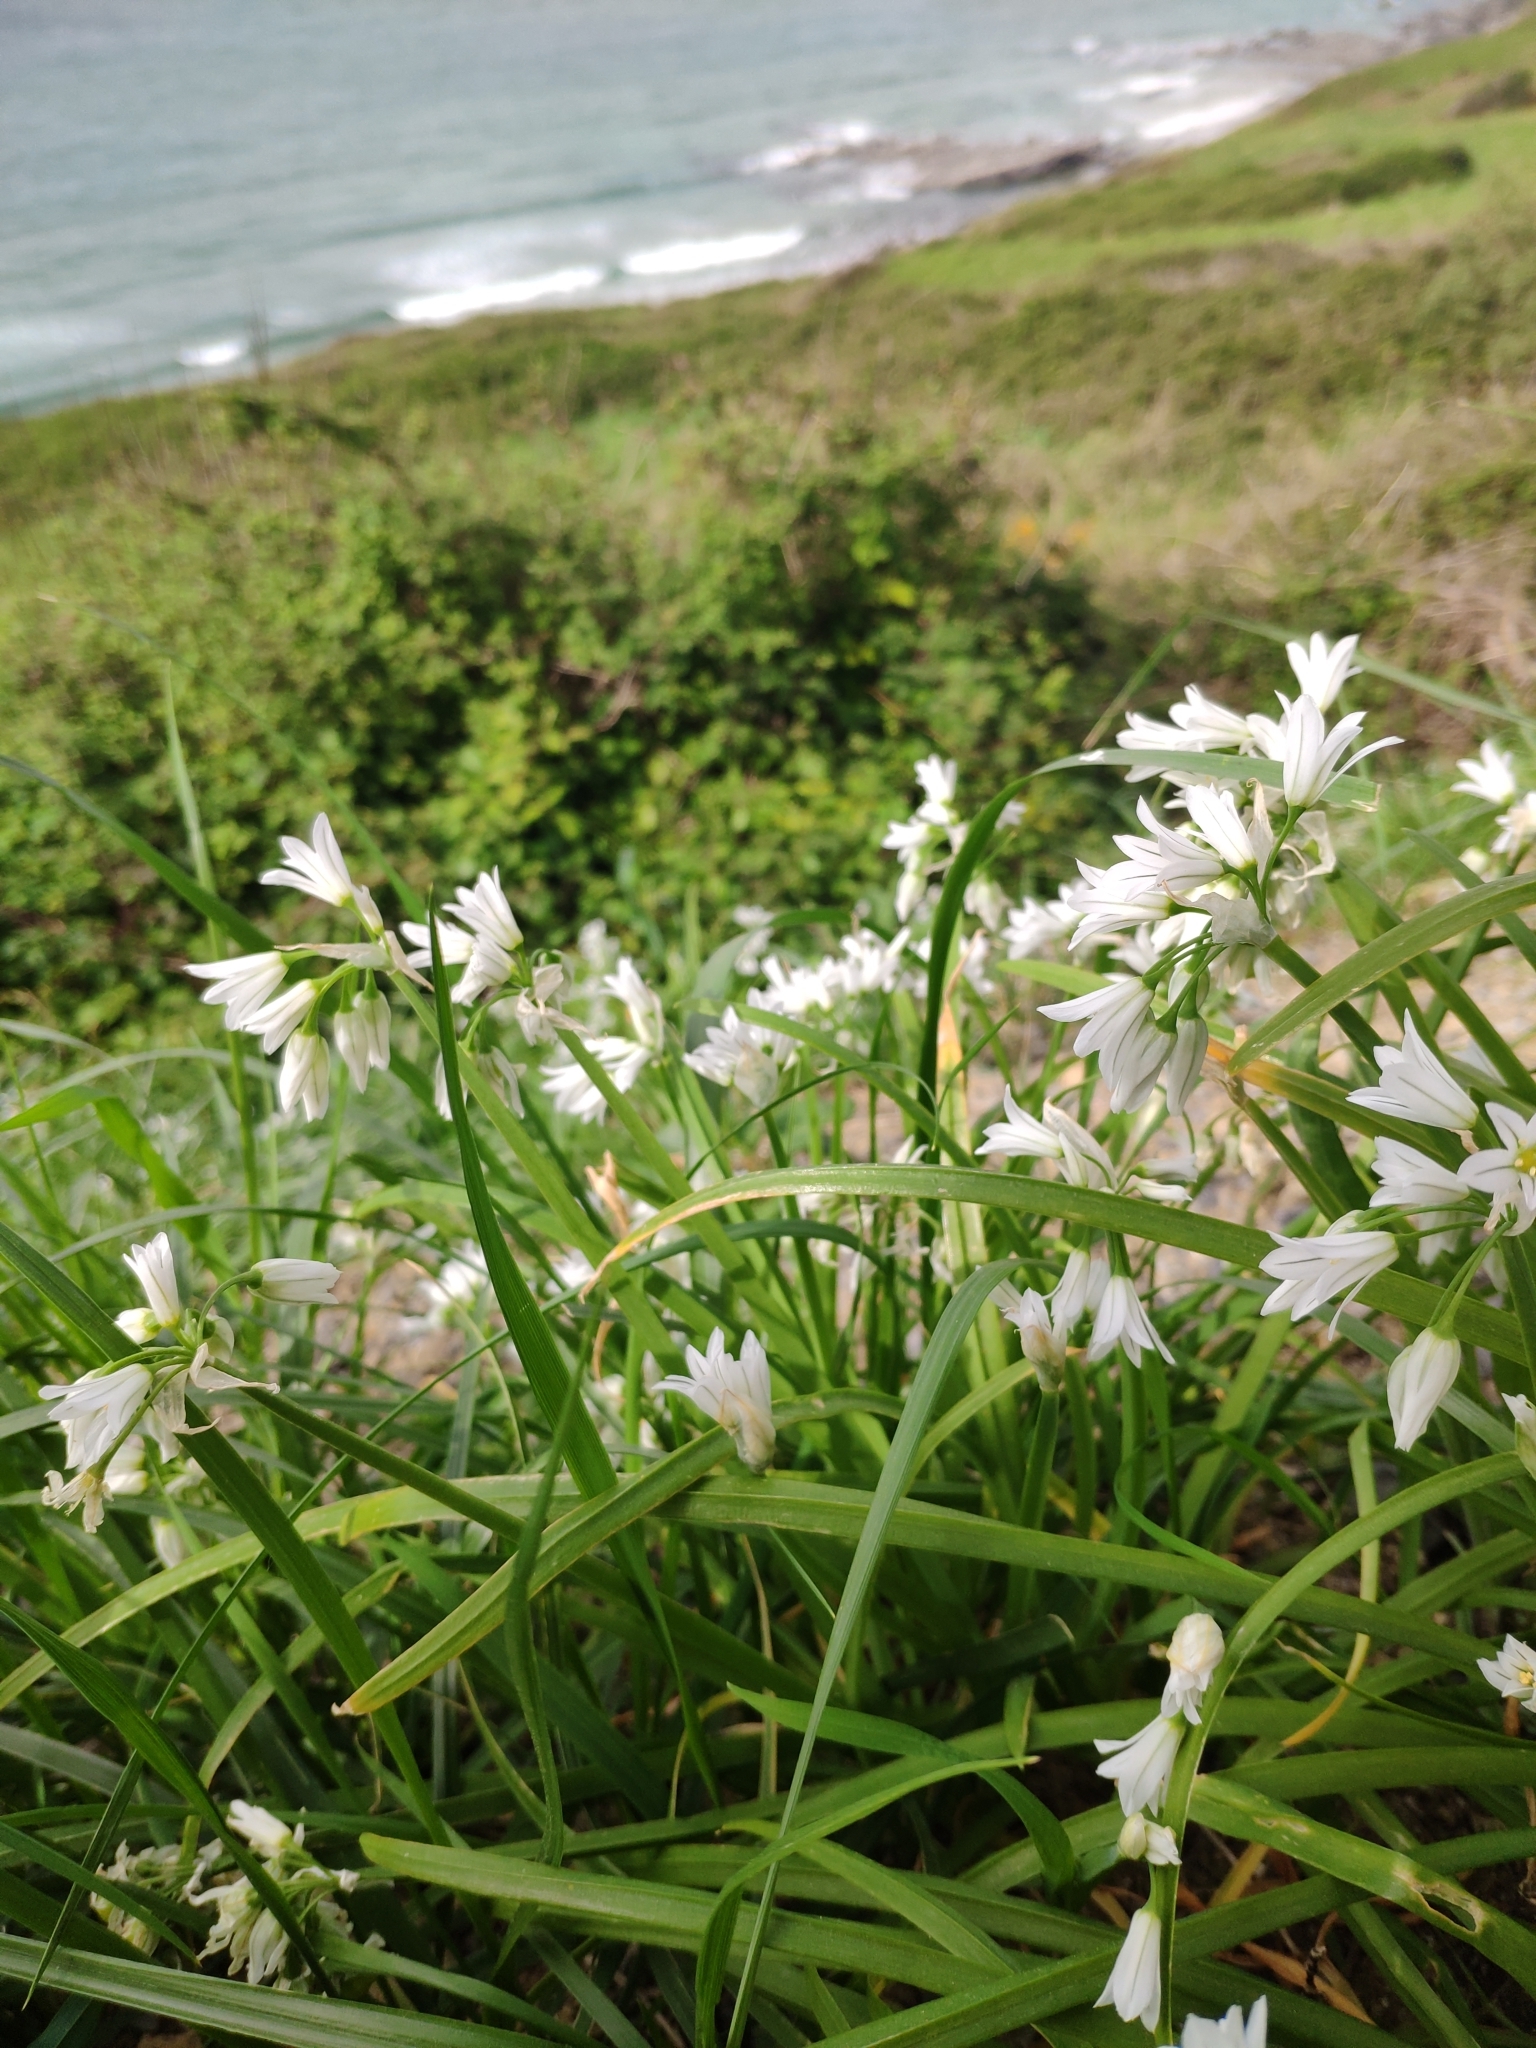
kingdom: Plantae
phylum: Tracheophyta
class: Liliopsida
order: Asparagales
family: Amaryllidaceae
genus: Allium
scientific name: Allium triquetrum
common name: Three-cornered garlic
